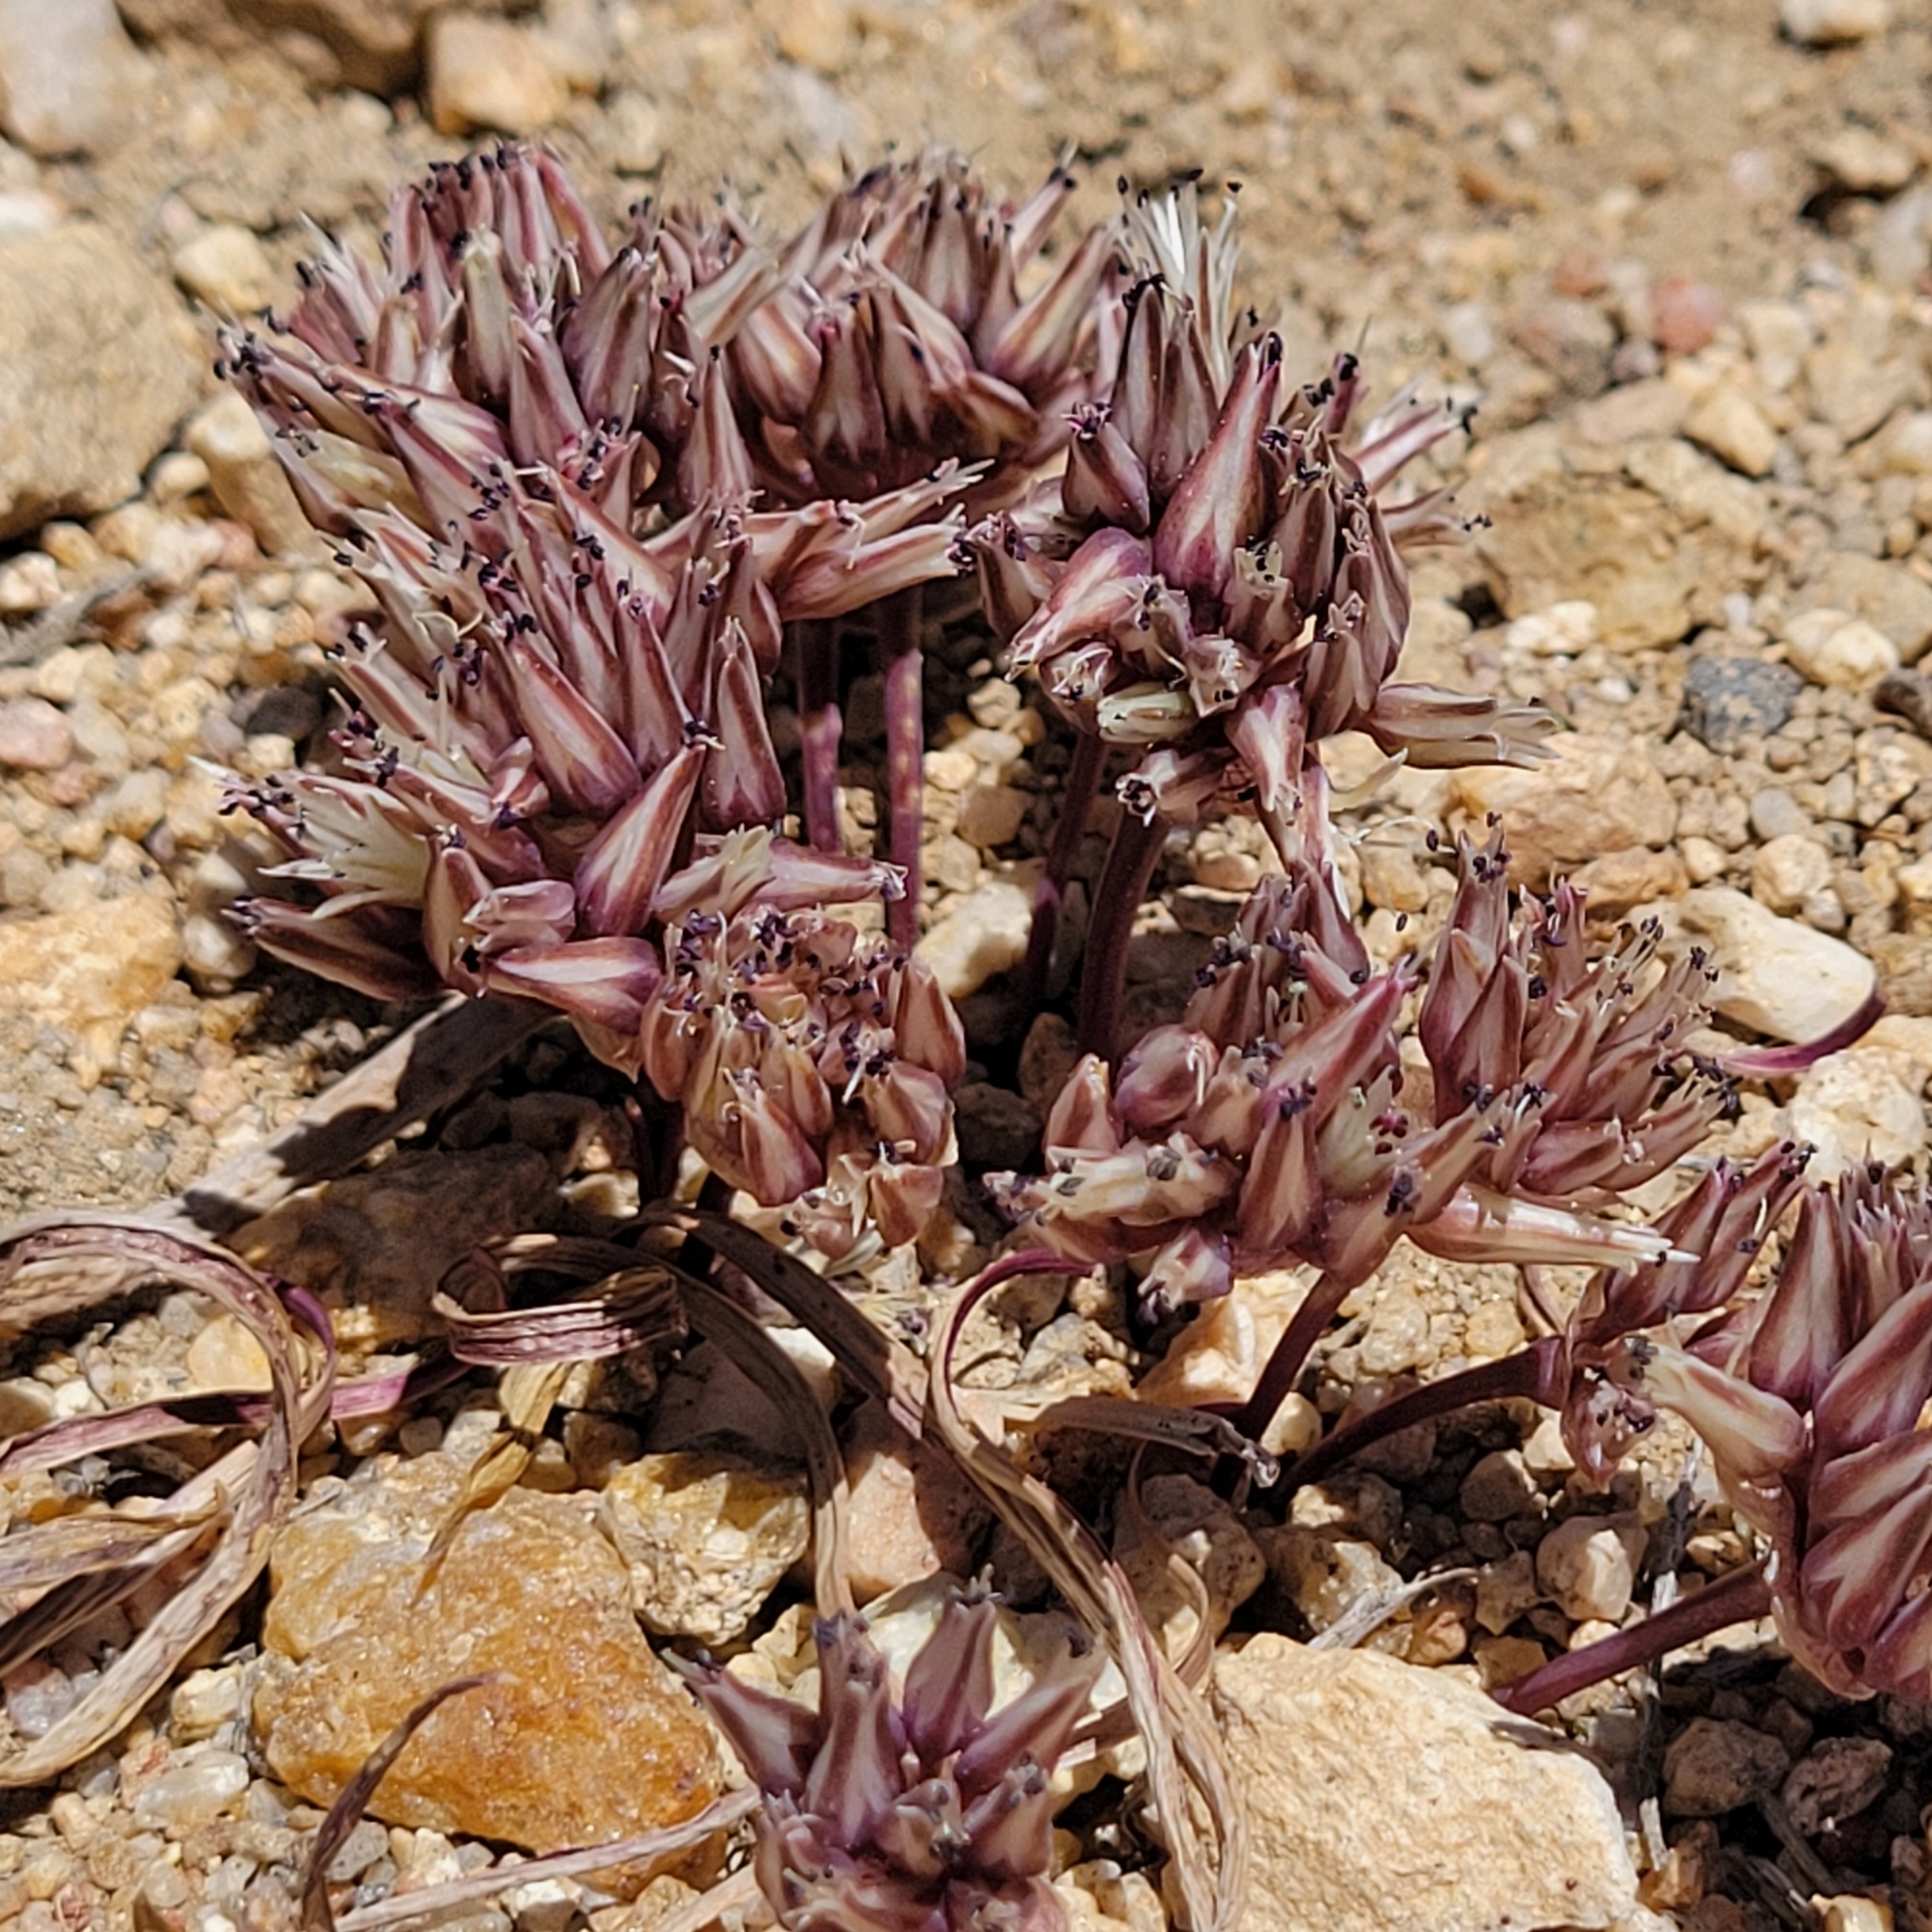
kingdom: Plantae
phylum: Tracheophyta
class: Liliopsida
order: Asparagales
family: Amaryllidaceae
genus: Allium
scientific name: Allium burlewii
